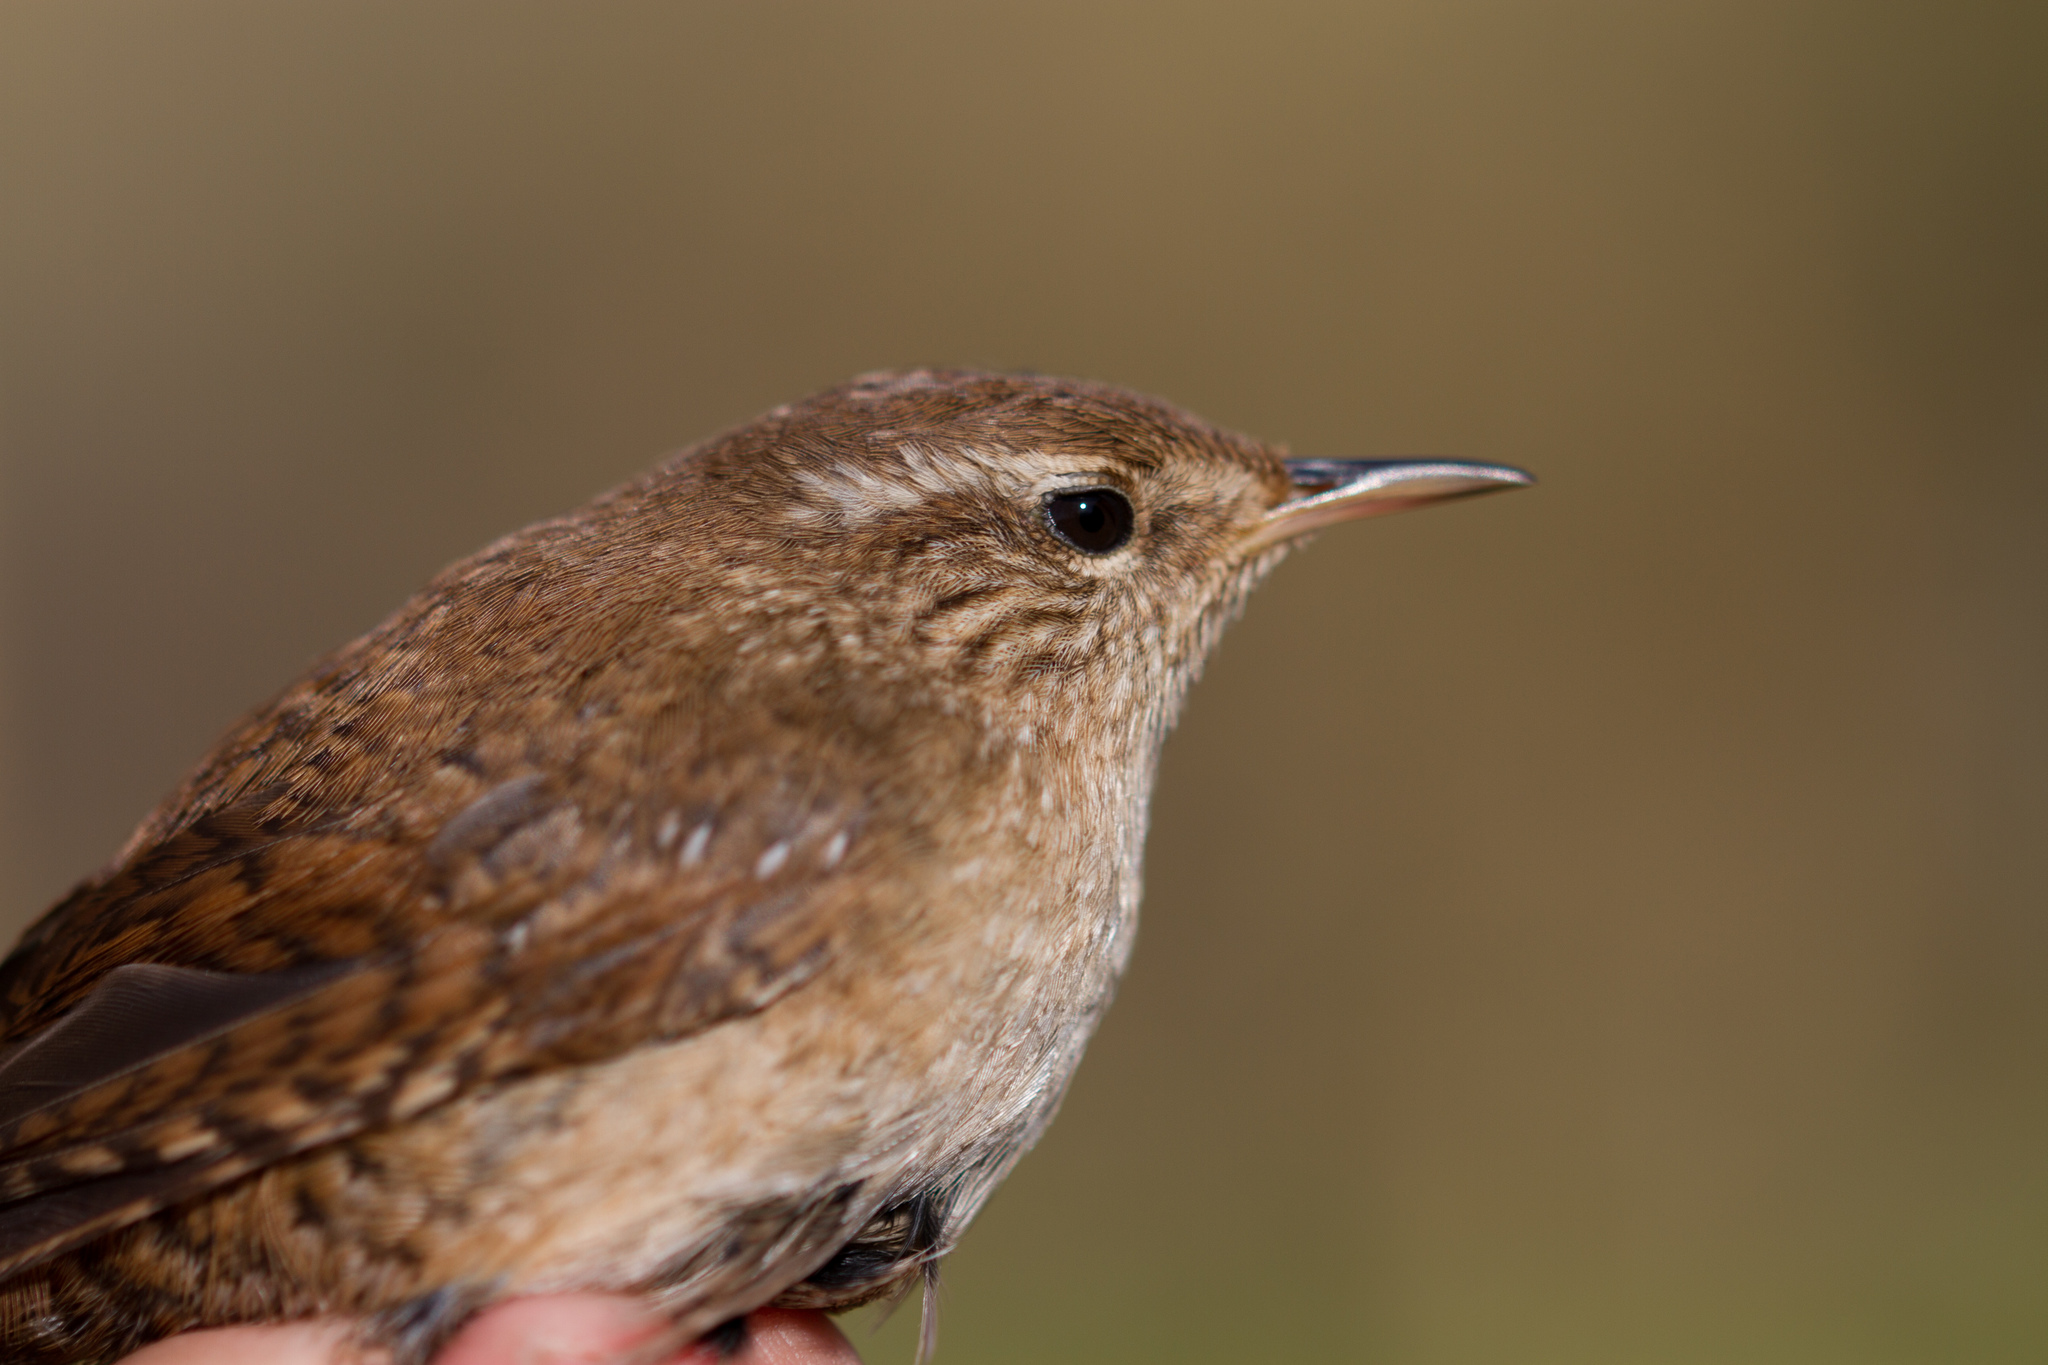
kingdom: Animalia
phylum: Chordata
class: Aves
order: Passeriformes
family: Troglodytidae
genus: Troglodytes
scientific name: Troglodytes troglodytes
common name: Eurasian wren
